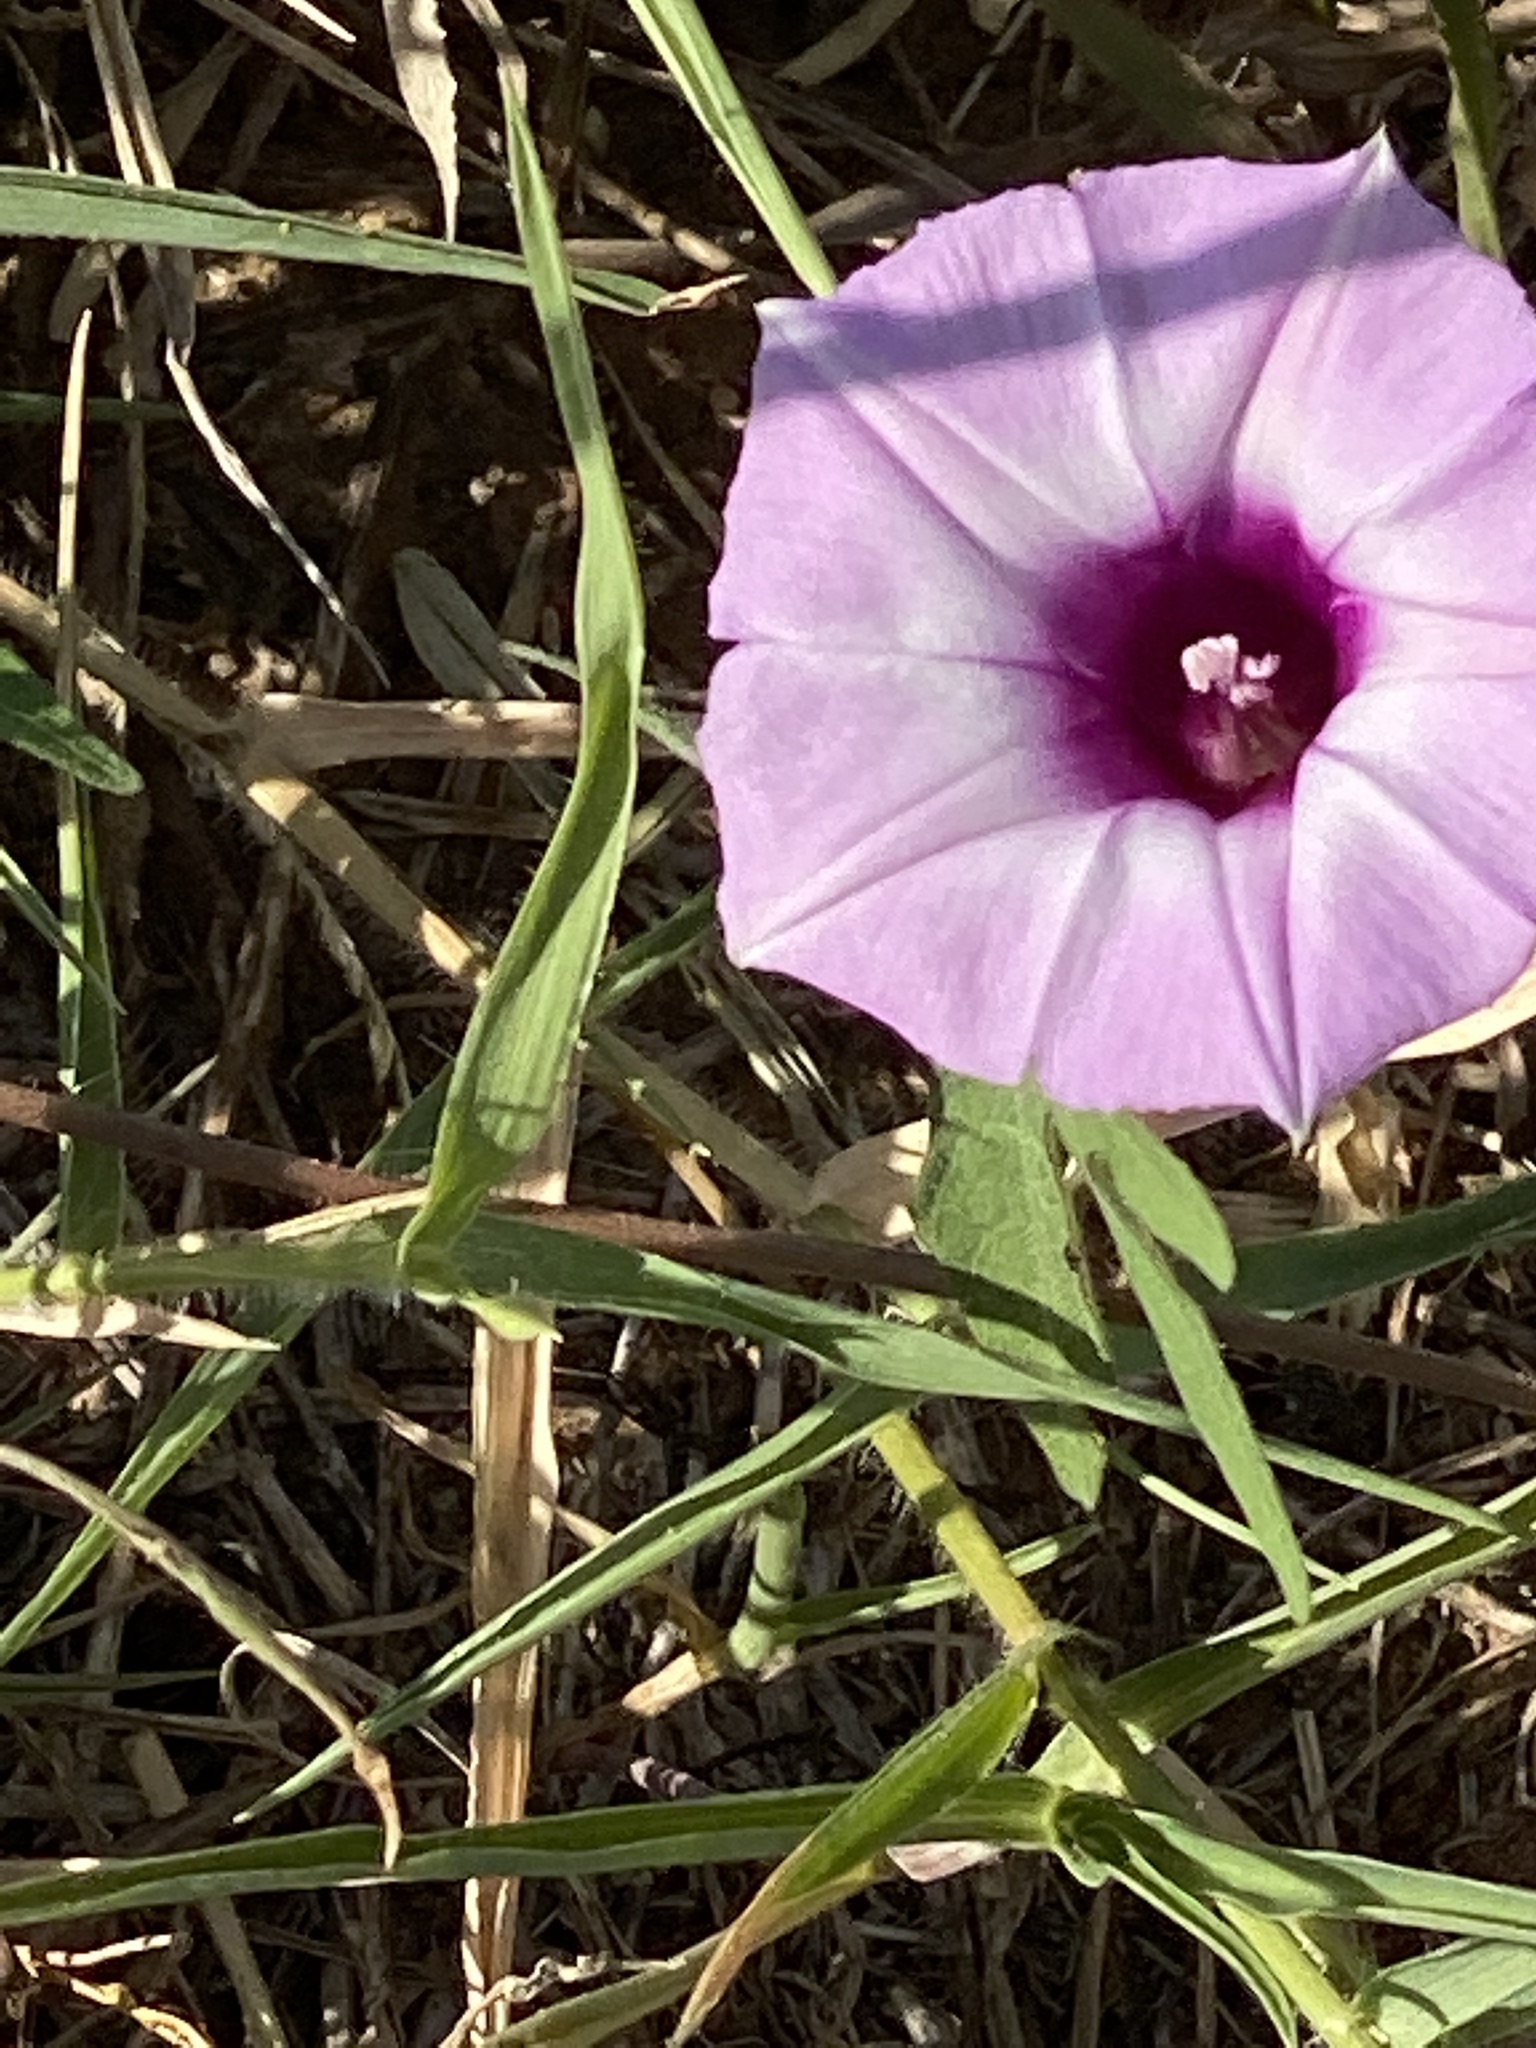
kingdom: Plantae
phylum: Tracheophyta
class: Magnoliopsida
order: Solanales
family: Convolvulaceae
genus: Ipomoea
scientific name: Ipomoea cordatotriloba
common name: Cotton morning glory
